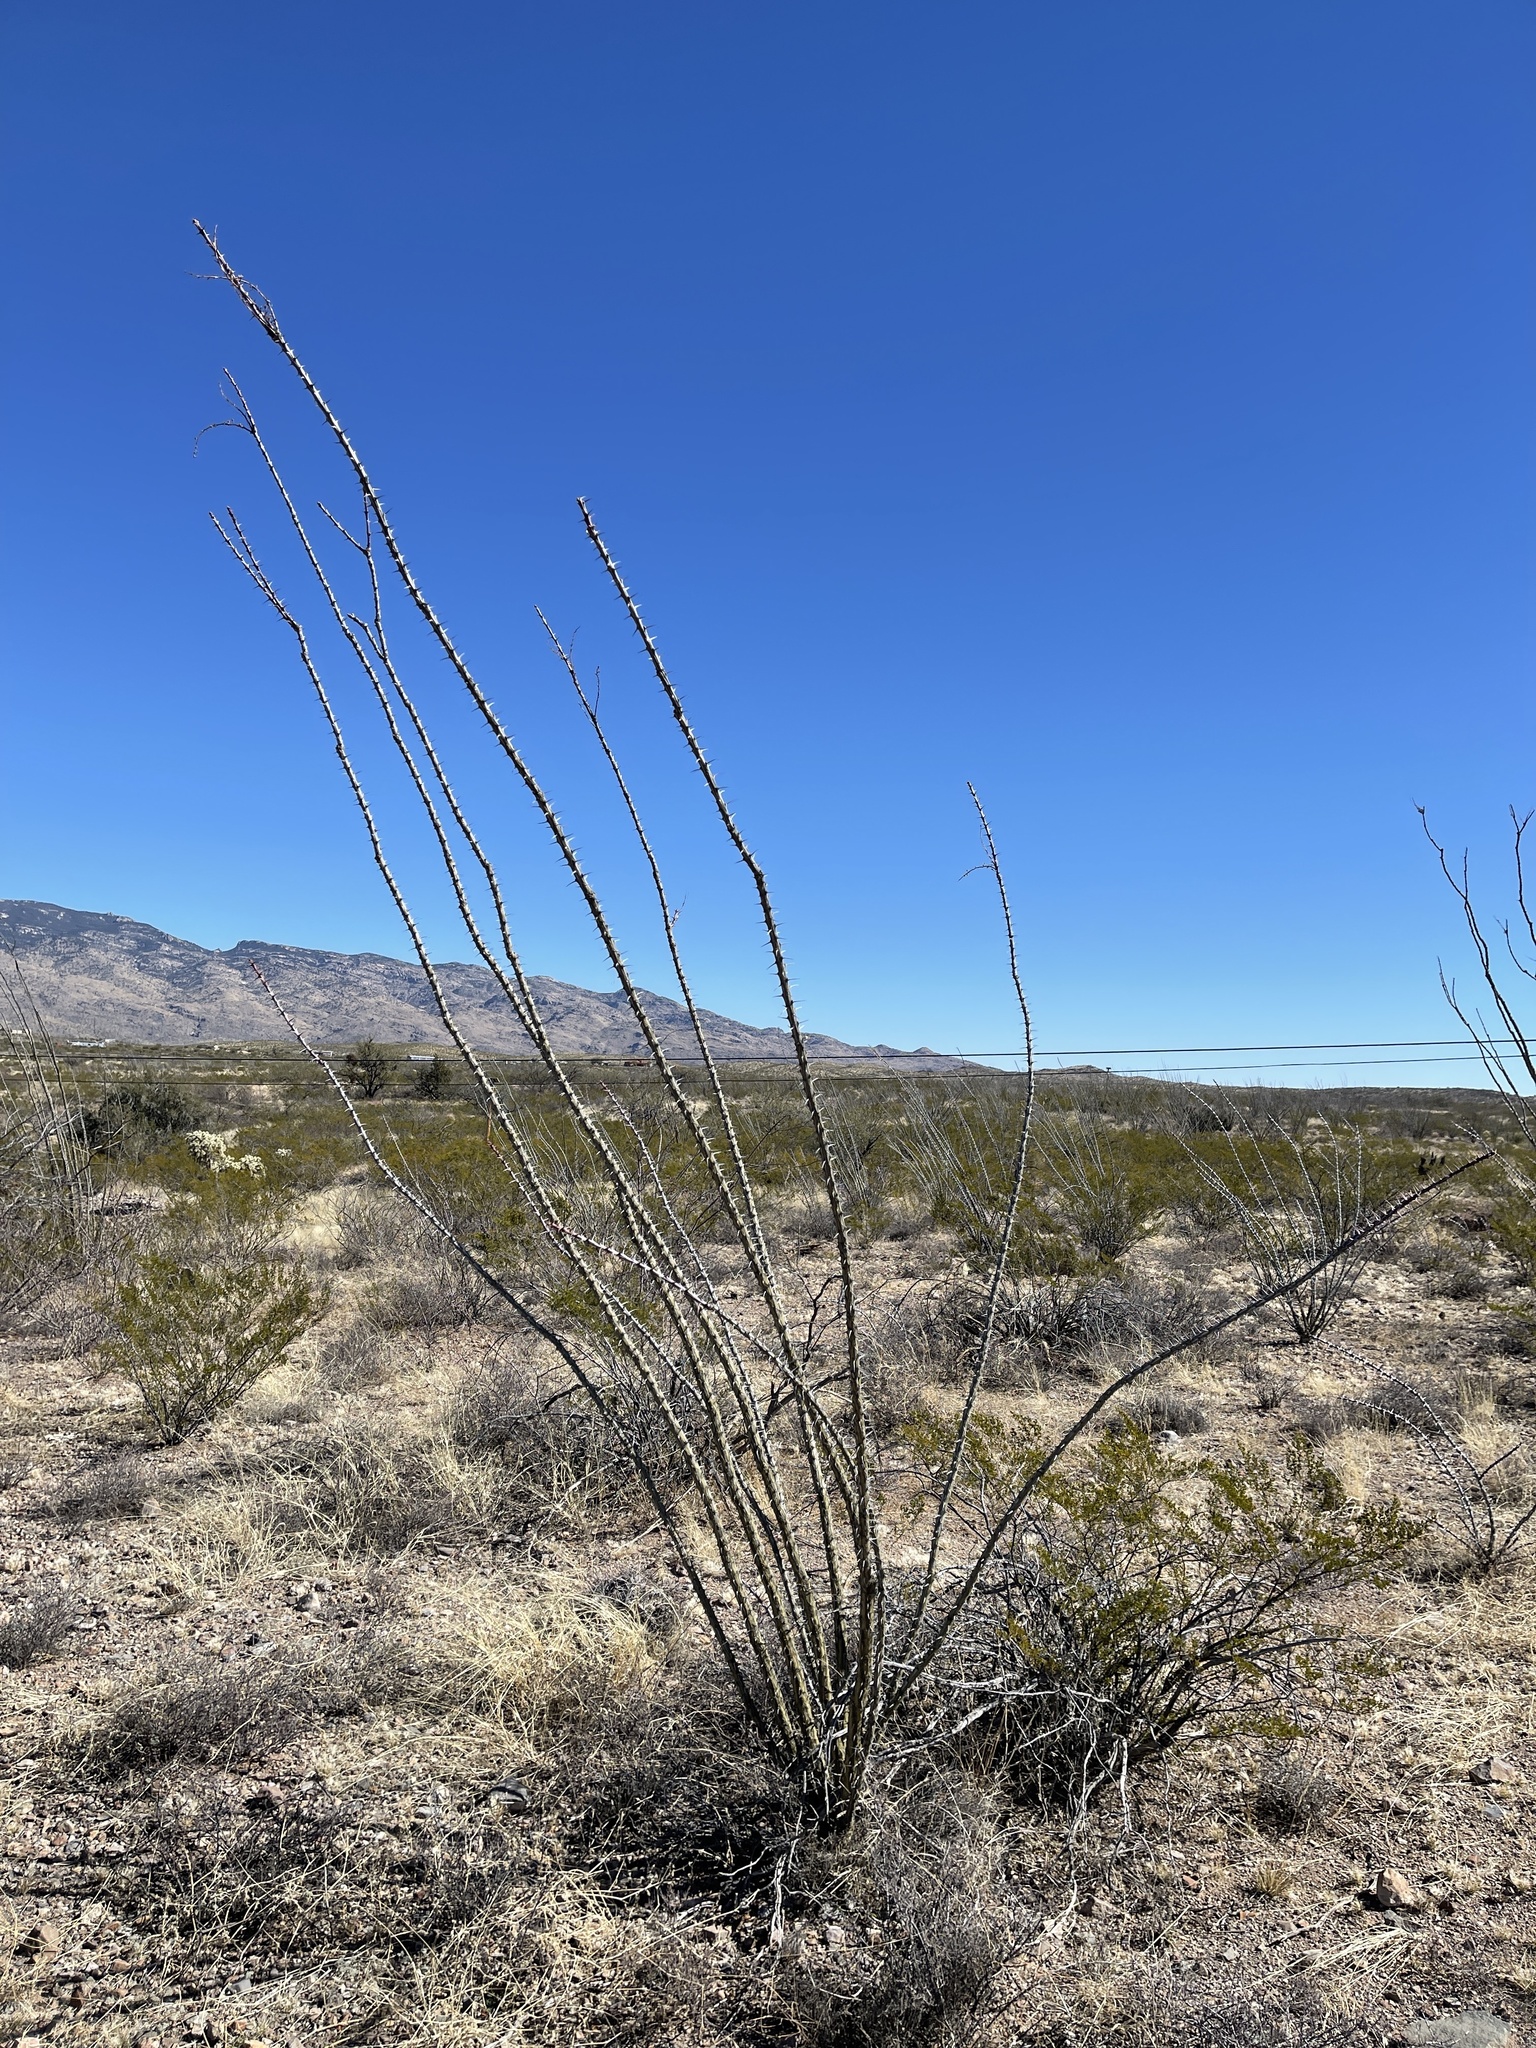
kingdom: Plantae
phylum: Tracheophyta
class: Magnoliopsida
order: Ericales
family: Fouquieriaceae
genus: Fouquieria
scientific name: Fouquieria splendens
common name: Vine-cactus
